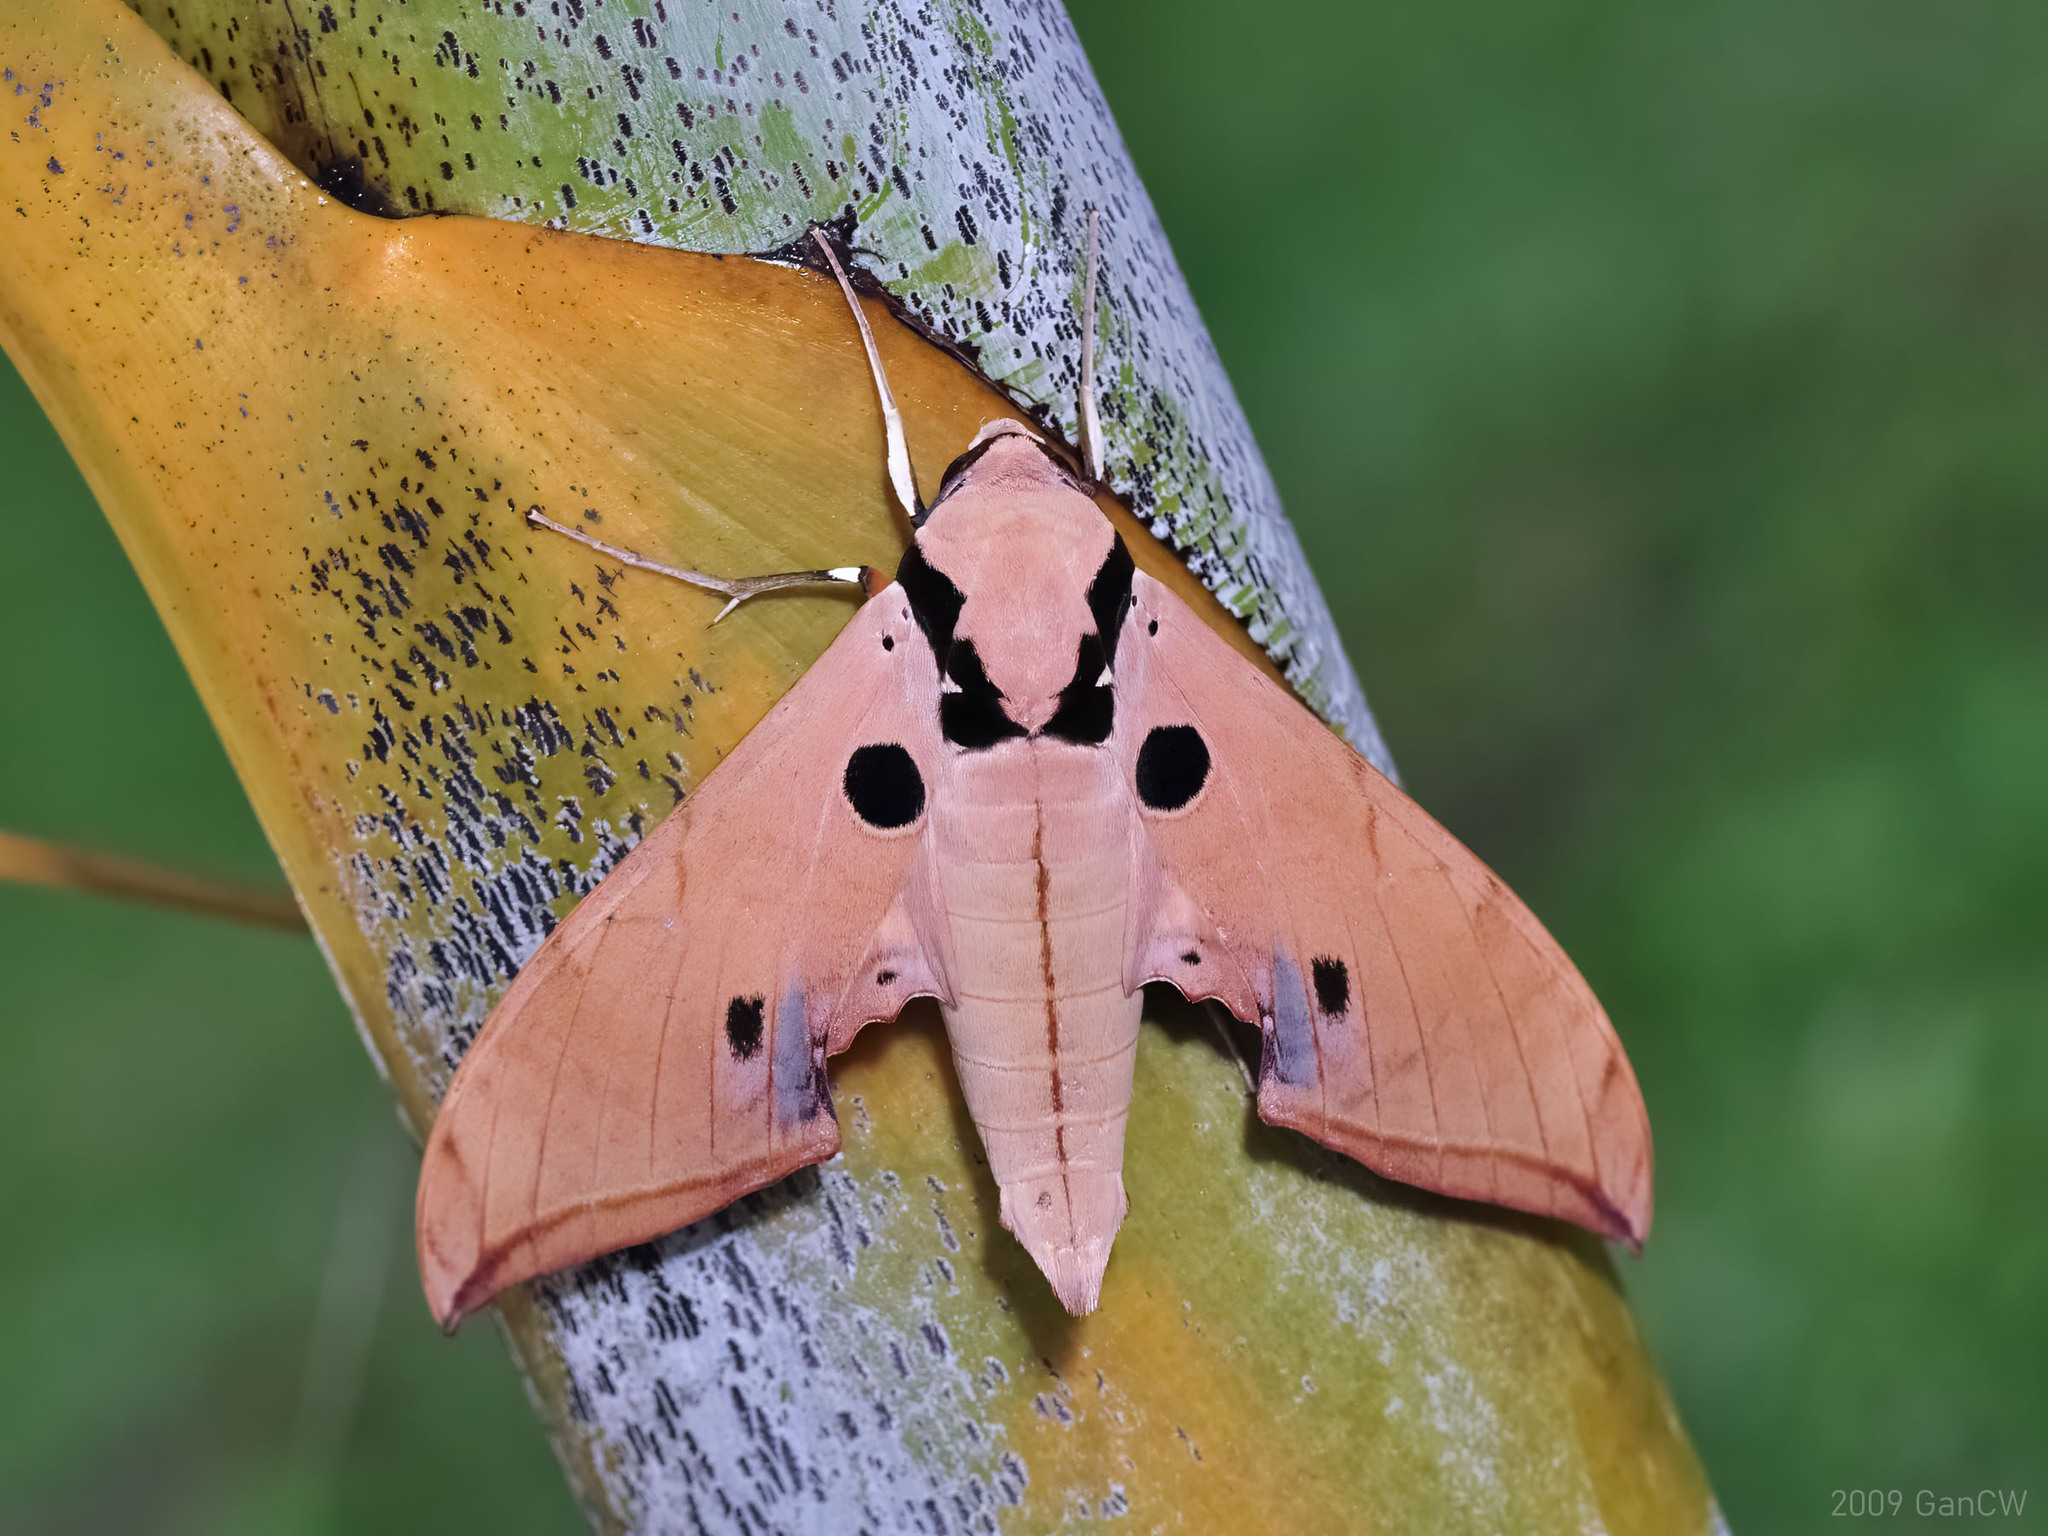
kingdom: Animalia
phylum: Arthropoda
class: Insecta
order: Lepidoptera
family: Sphingidae
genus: Ambulyx
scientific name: Ambulyx obliterata
